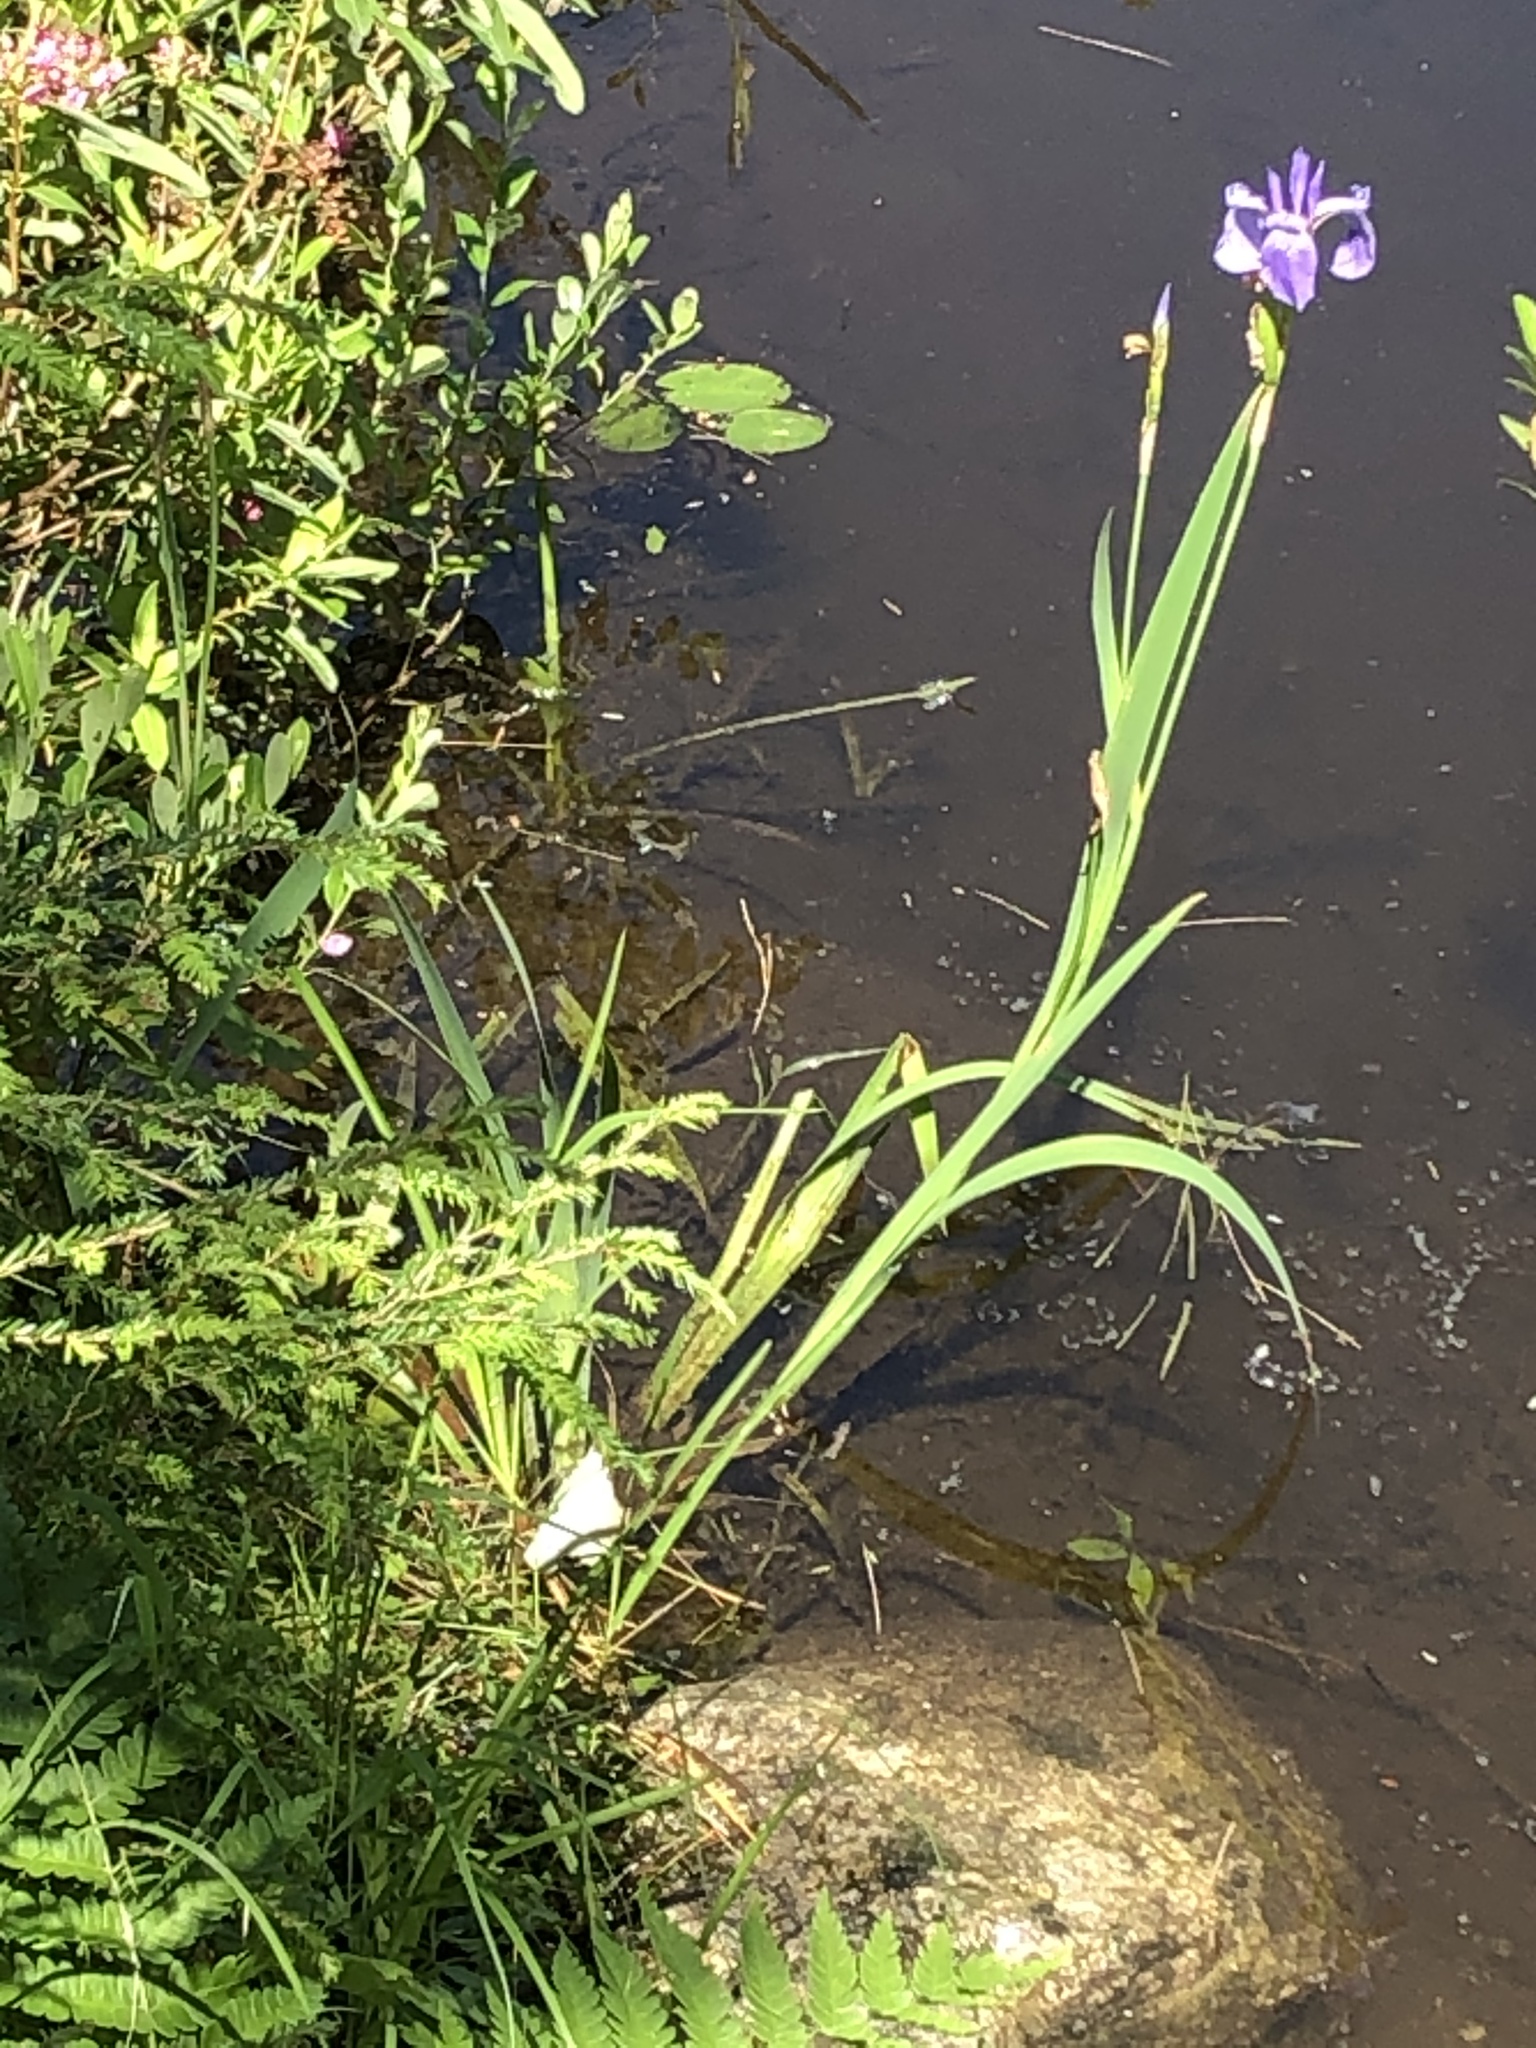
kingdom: Plantae
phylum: Tracheophyta
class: Liliopsida
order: Asparagales
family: Iridaceae
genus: Iris
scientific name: Iris versicolor
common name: Purple iris
